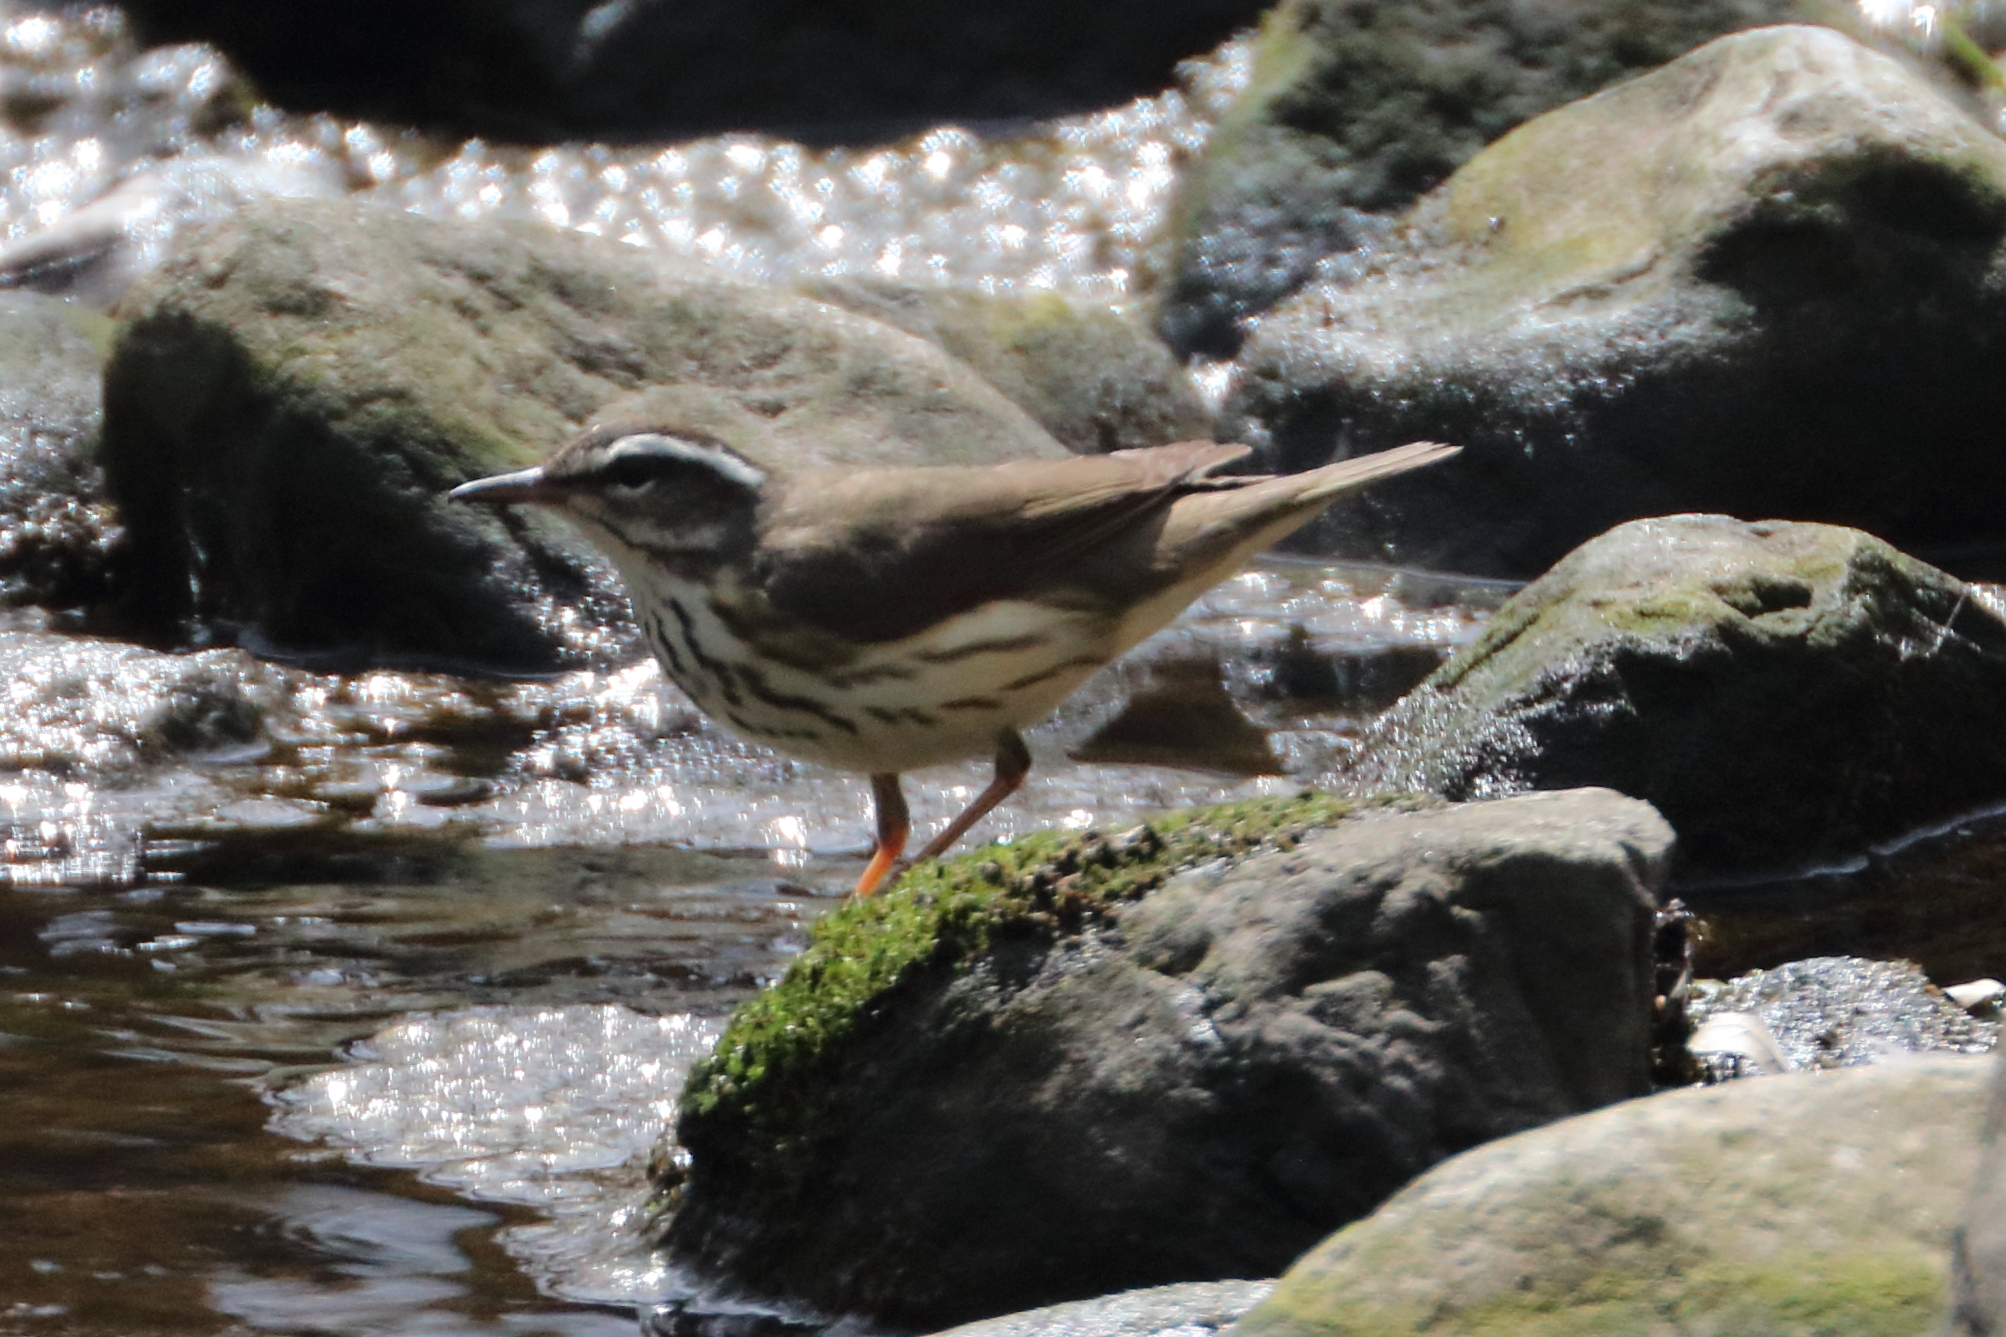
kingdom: Animalia
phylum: Chordata
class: Aves
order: Passeriformes
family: Parulidae
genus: Parkesia
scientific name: Parkesia motacilla
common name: Louisiana waterthrush
